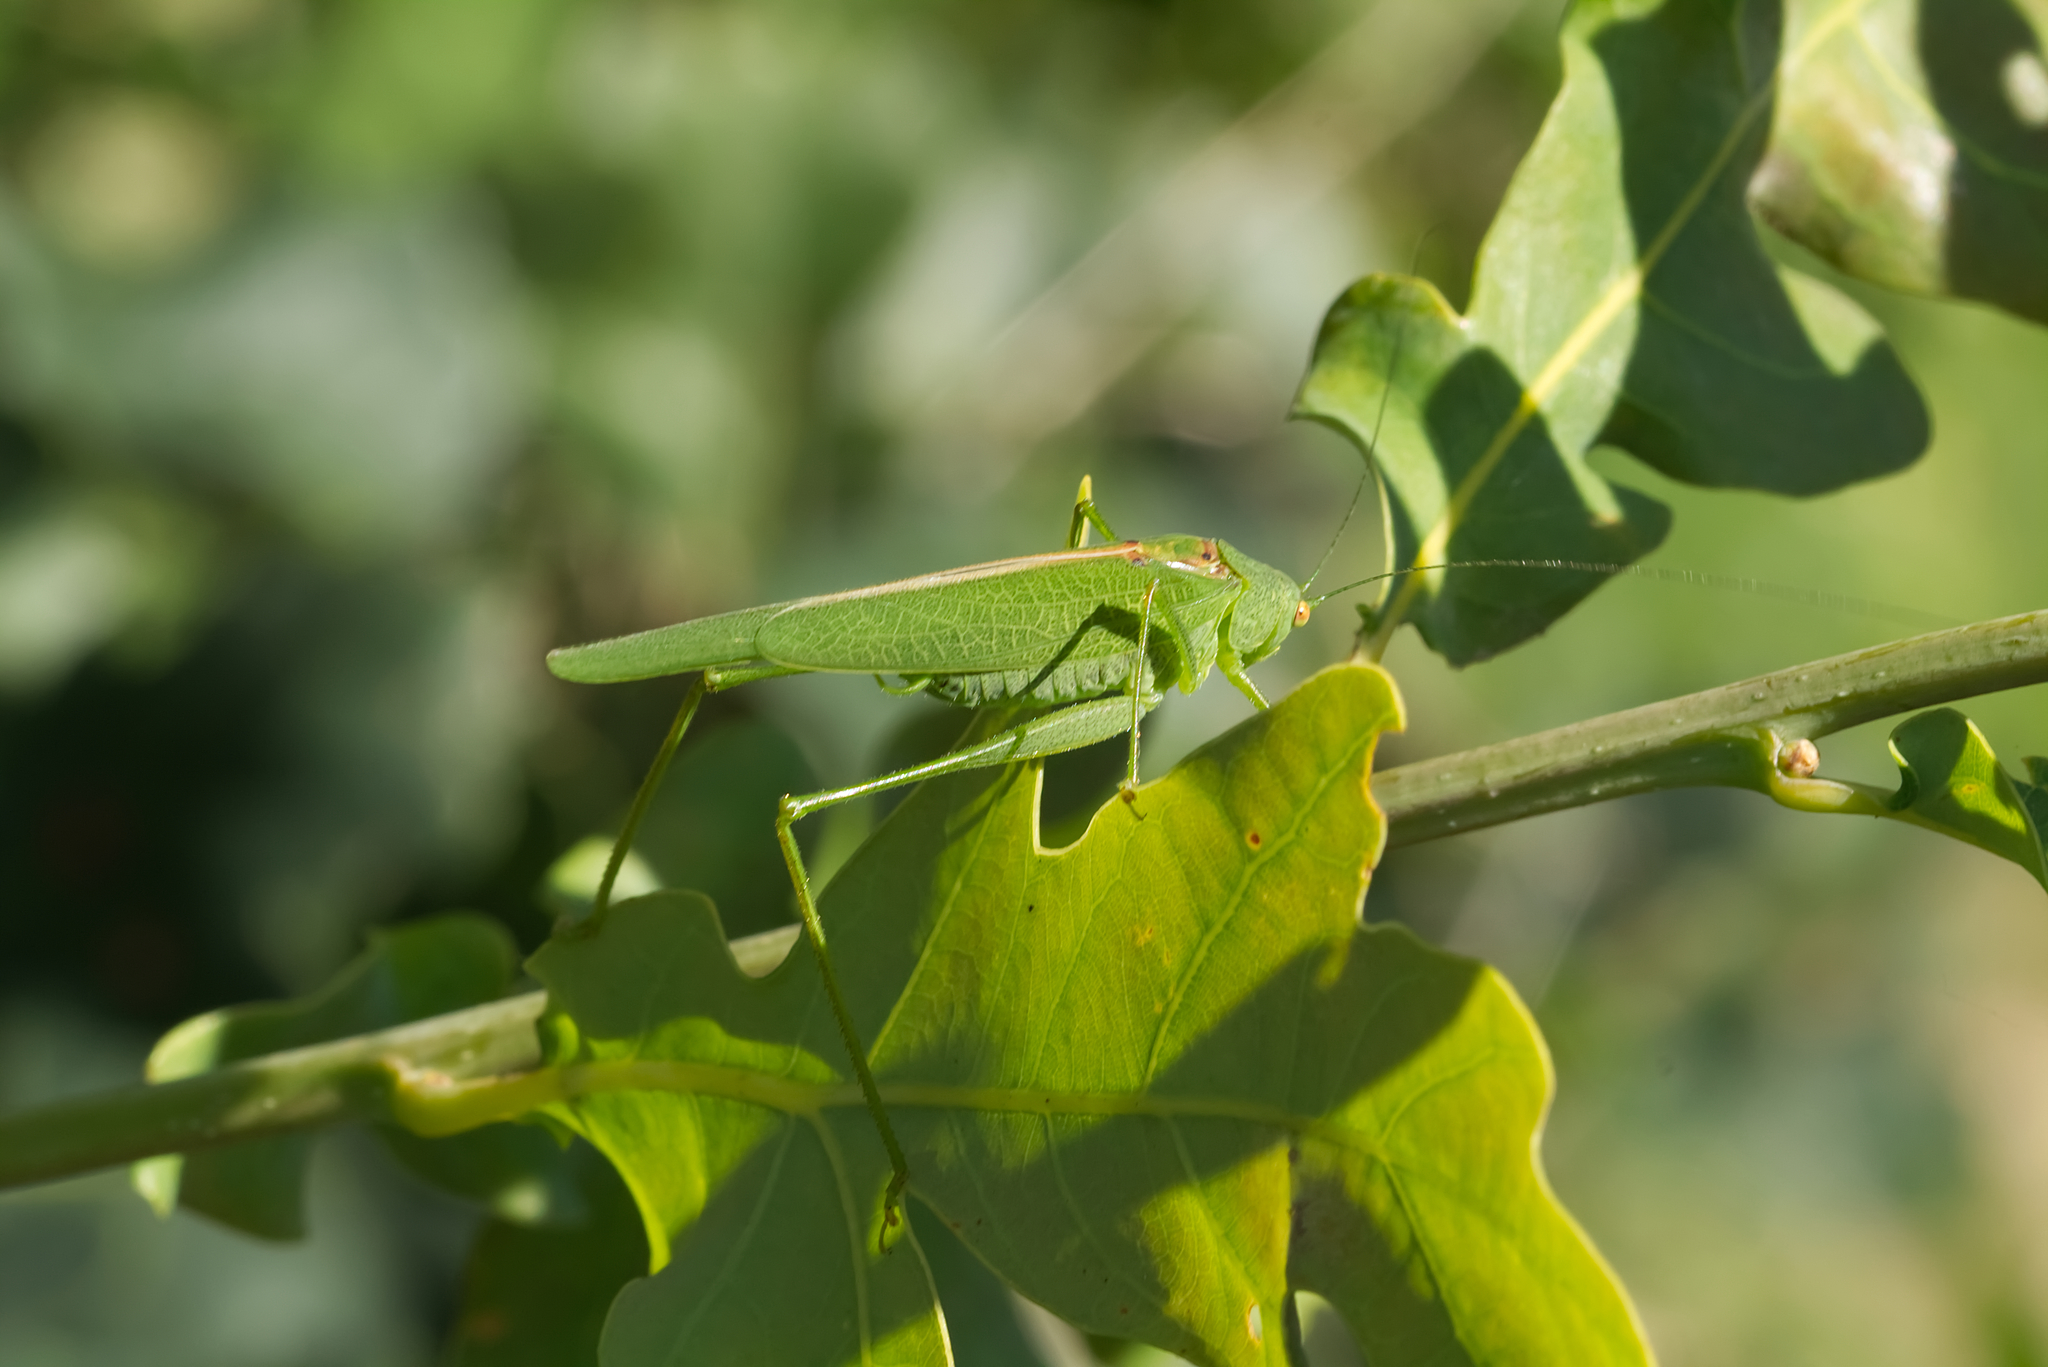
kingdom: Animalia
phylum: Arthropoda
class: Insecta
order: Orthoptera
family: Tettigoniidae
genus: Phaneroptera
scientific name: Phaneroptera nana
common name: Southern sickle bush-cricket
